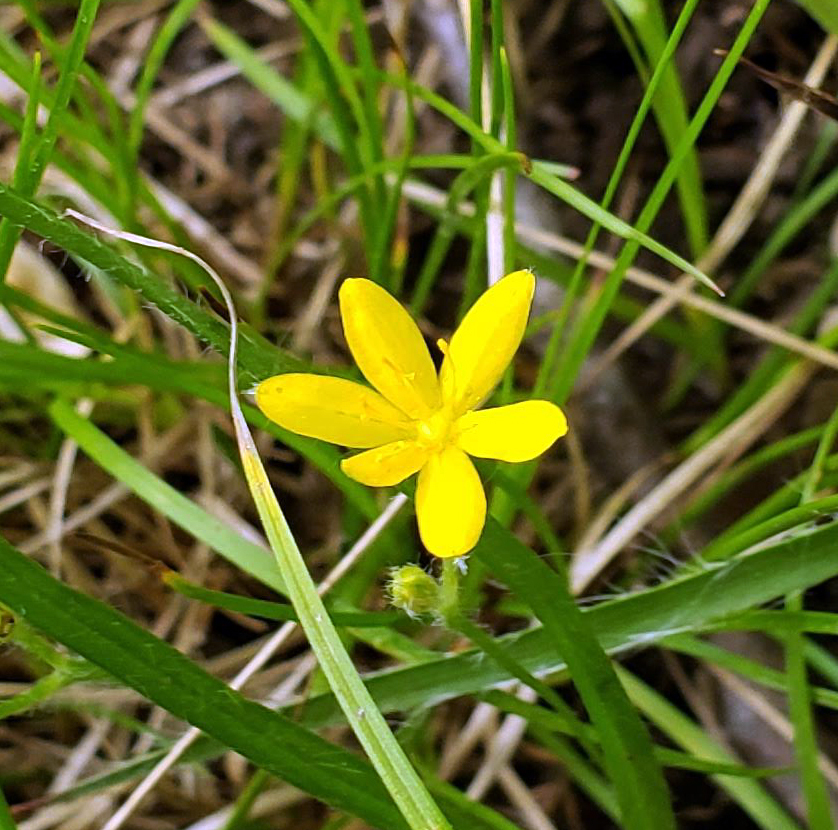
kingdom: Plantae
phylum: Tracheophyta
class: Liliopsida
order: Asparagales
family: Hypoxidaceae
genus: Hypoxis
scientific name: Hypoxis hirsuta
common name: Common goldstar
